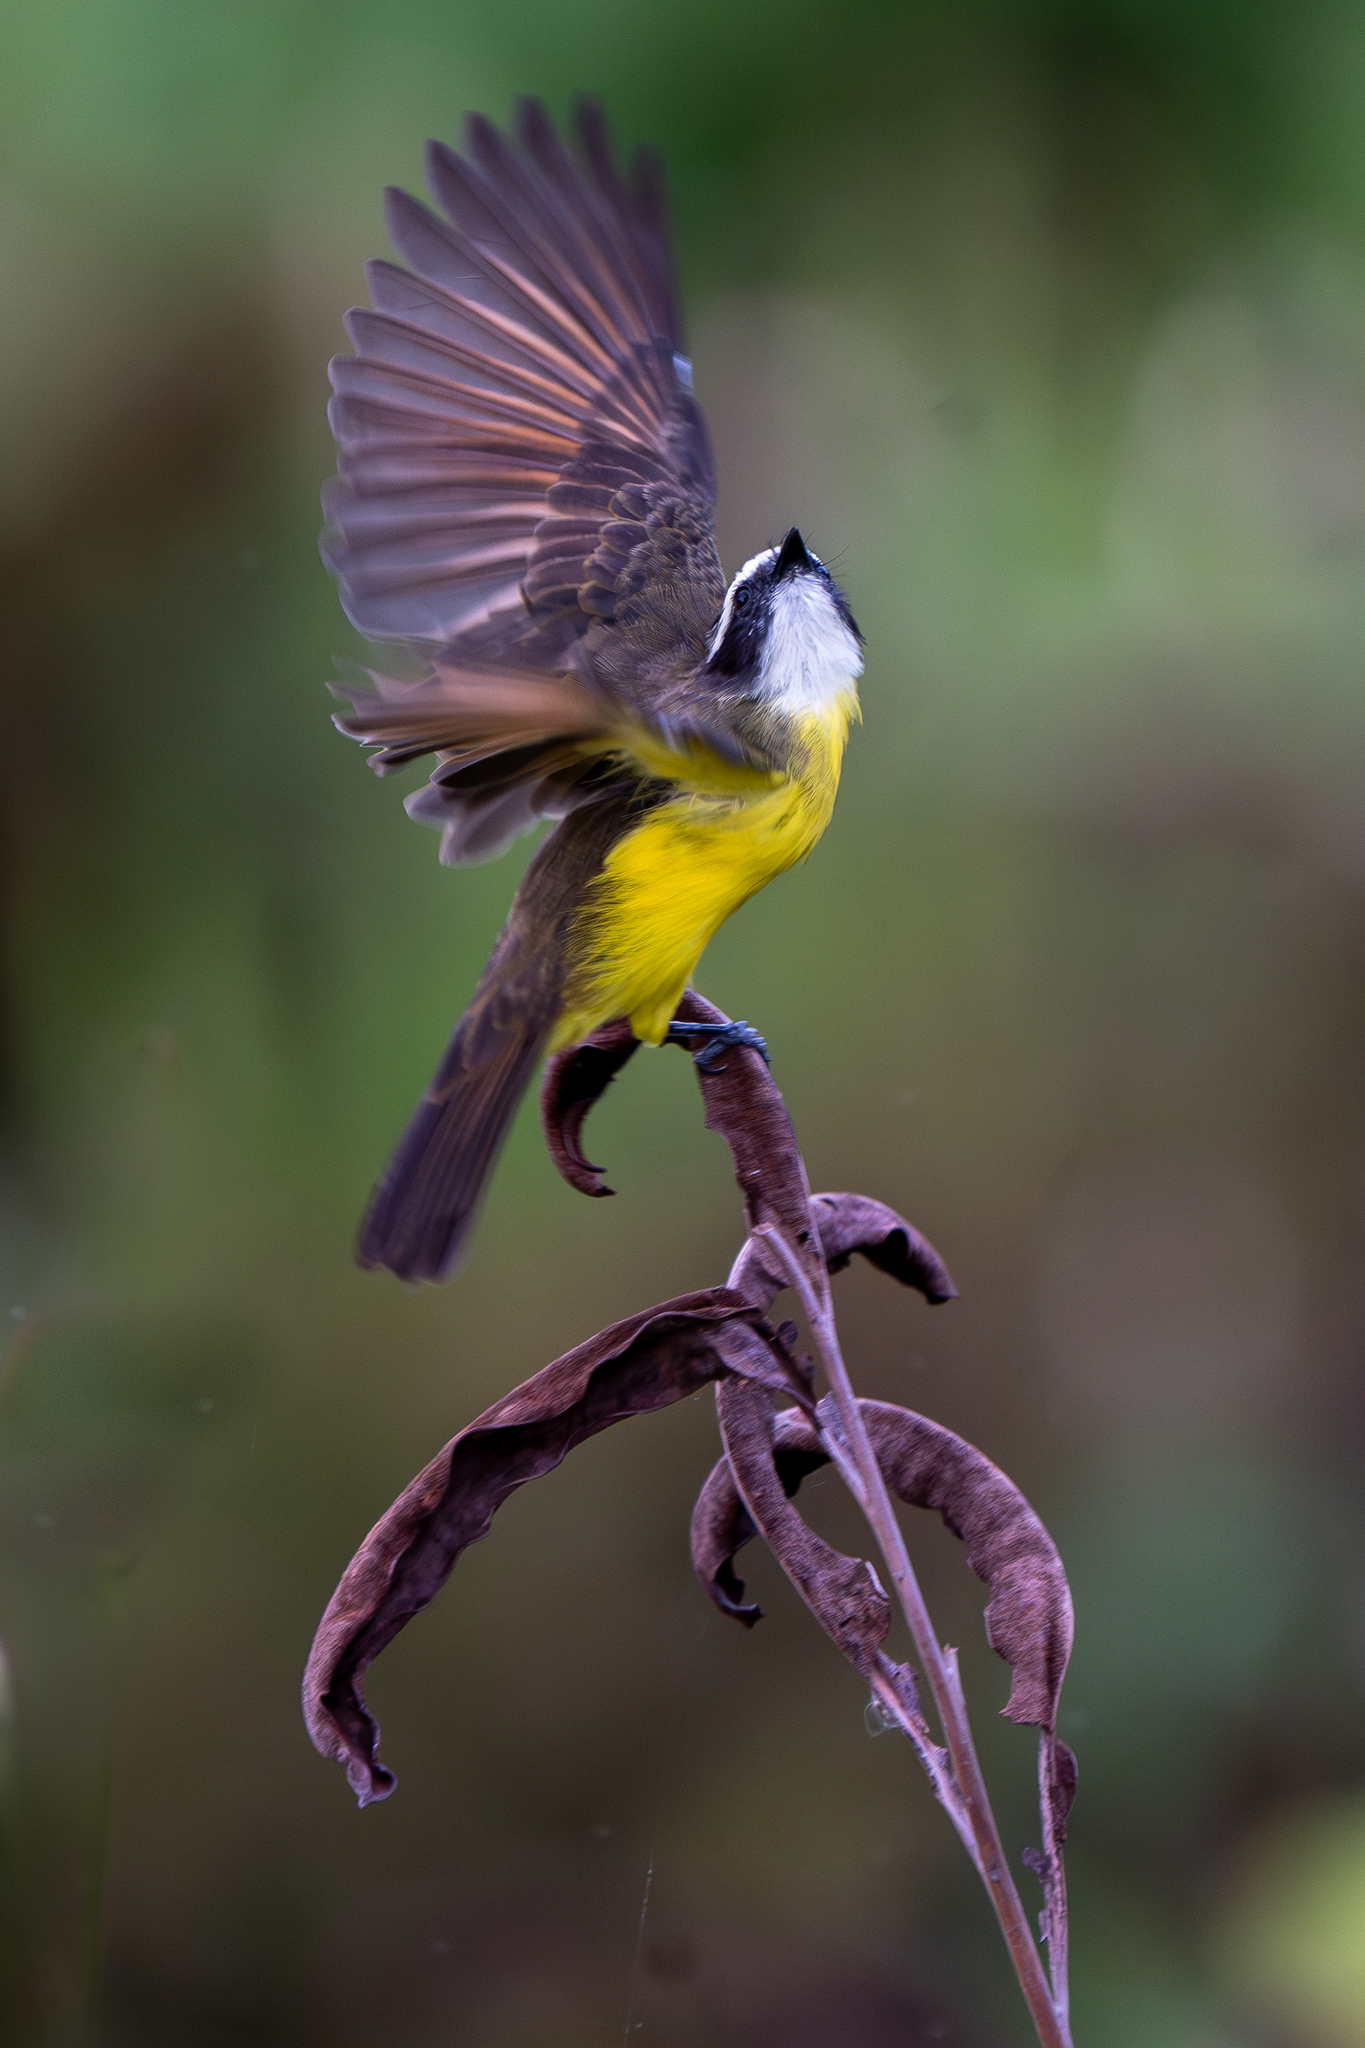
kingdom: Animalia
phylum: Chordata
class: Aves
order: Passeriformes
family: Tyrannidae
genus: Myiozetetes
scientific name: Myiozetetes cayanensis
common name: Rusty-margined flycatcher
